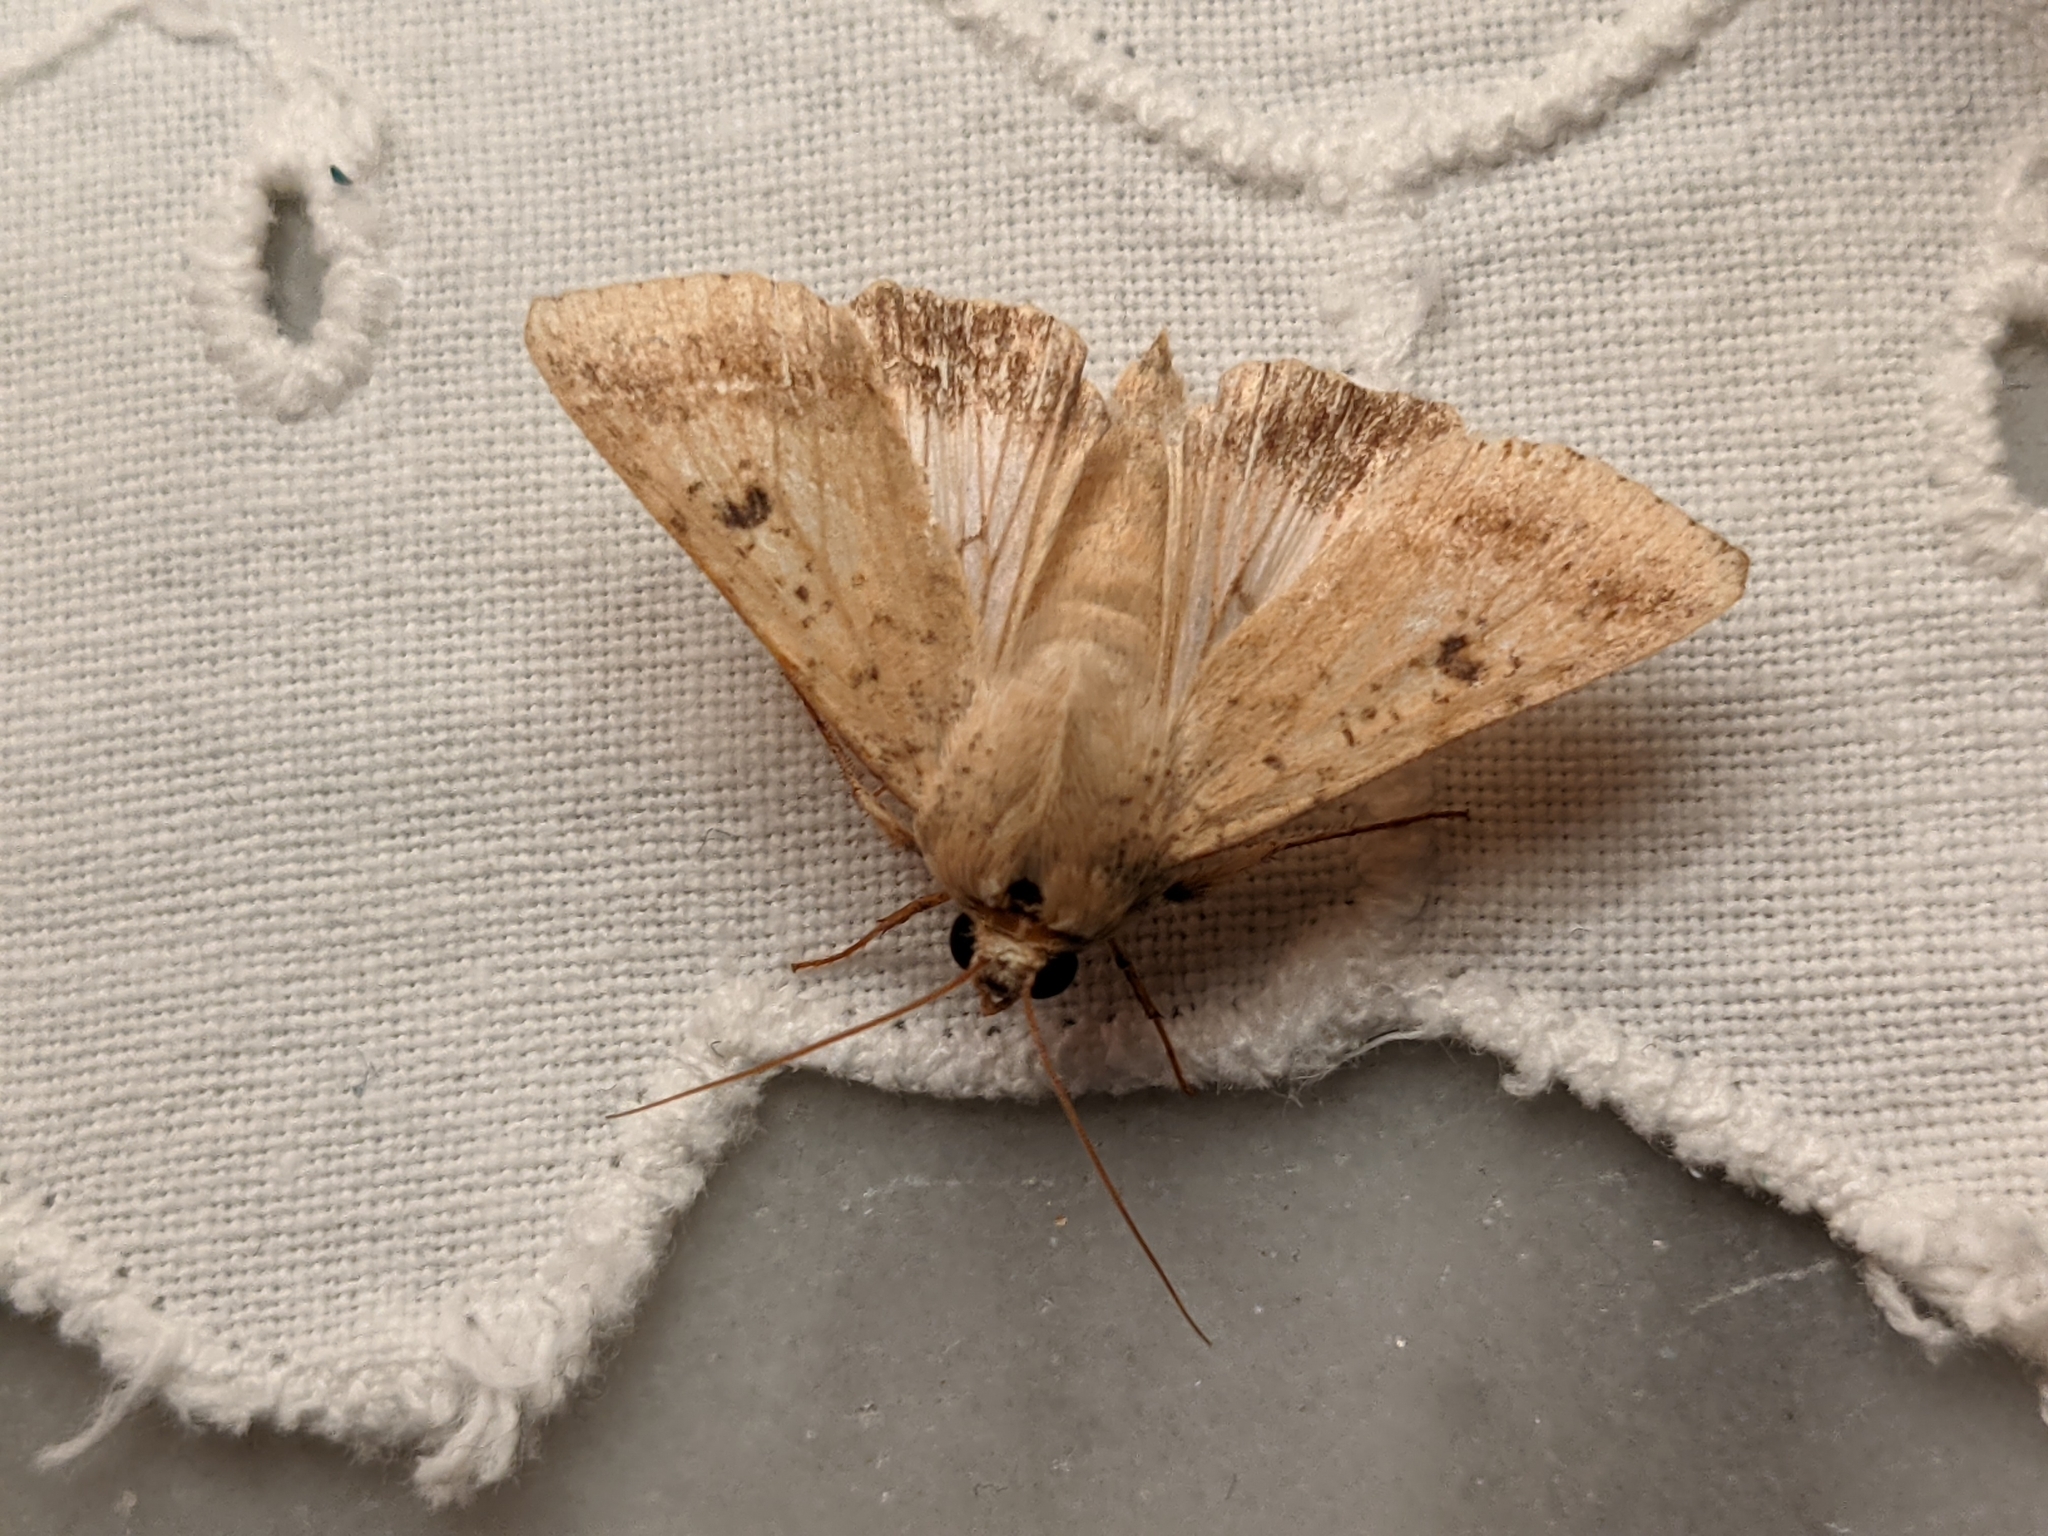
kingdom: Animalia
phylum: Arthropoda
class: Insecta
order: Lepidoptera
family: Noctuidae
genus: Helicoverpa
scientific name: Helicoverpa armigera
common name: Cotton bollworm
